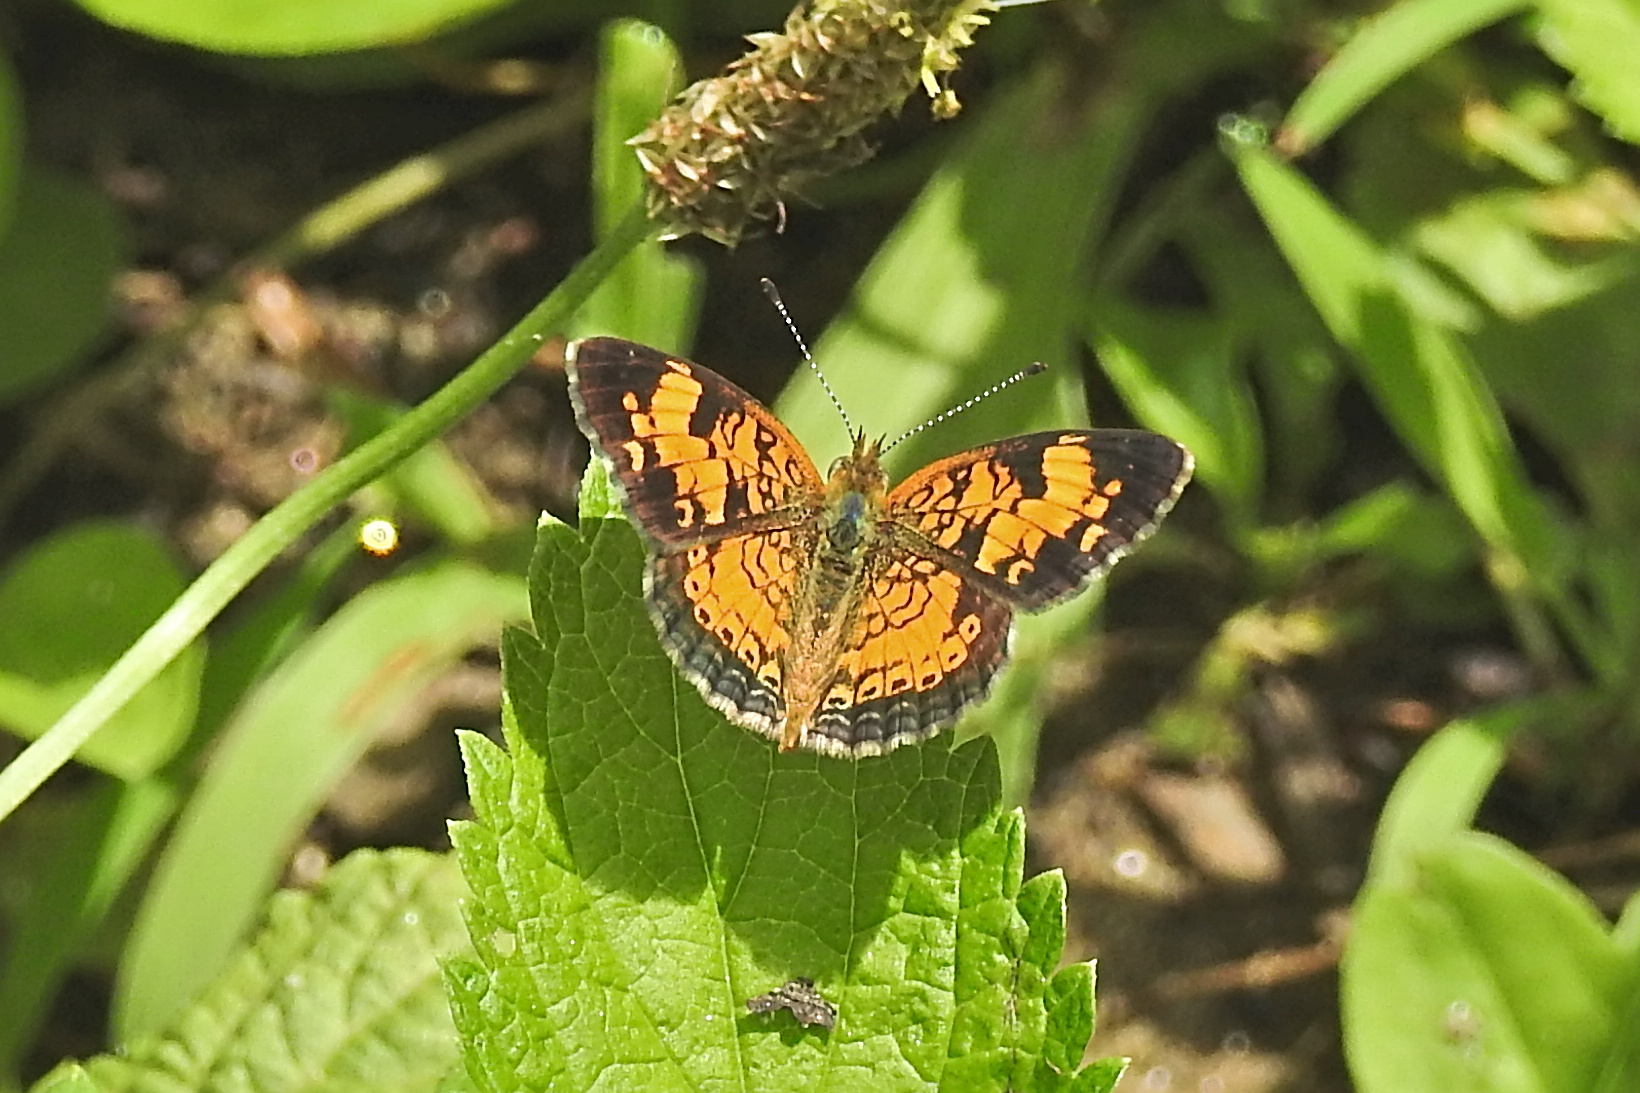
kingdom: Animalia
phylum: Arthropoda
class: Insecta
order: Lepidoptera
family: Nymphalidae
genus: Phyciodes
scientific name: Phyciodes tharos
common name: Pearl crescent
